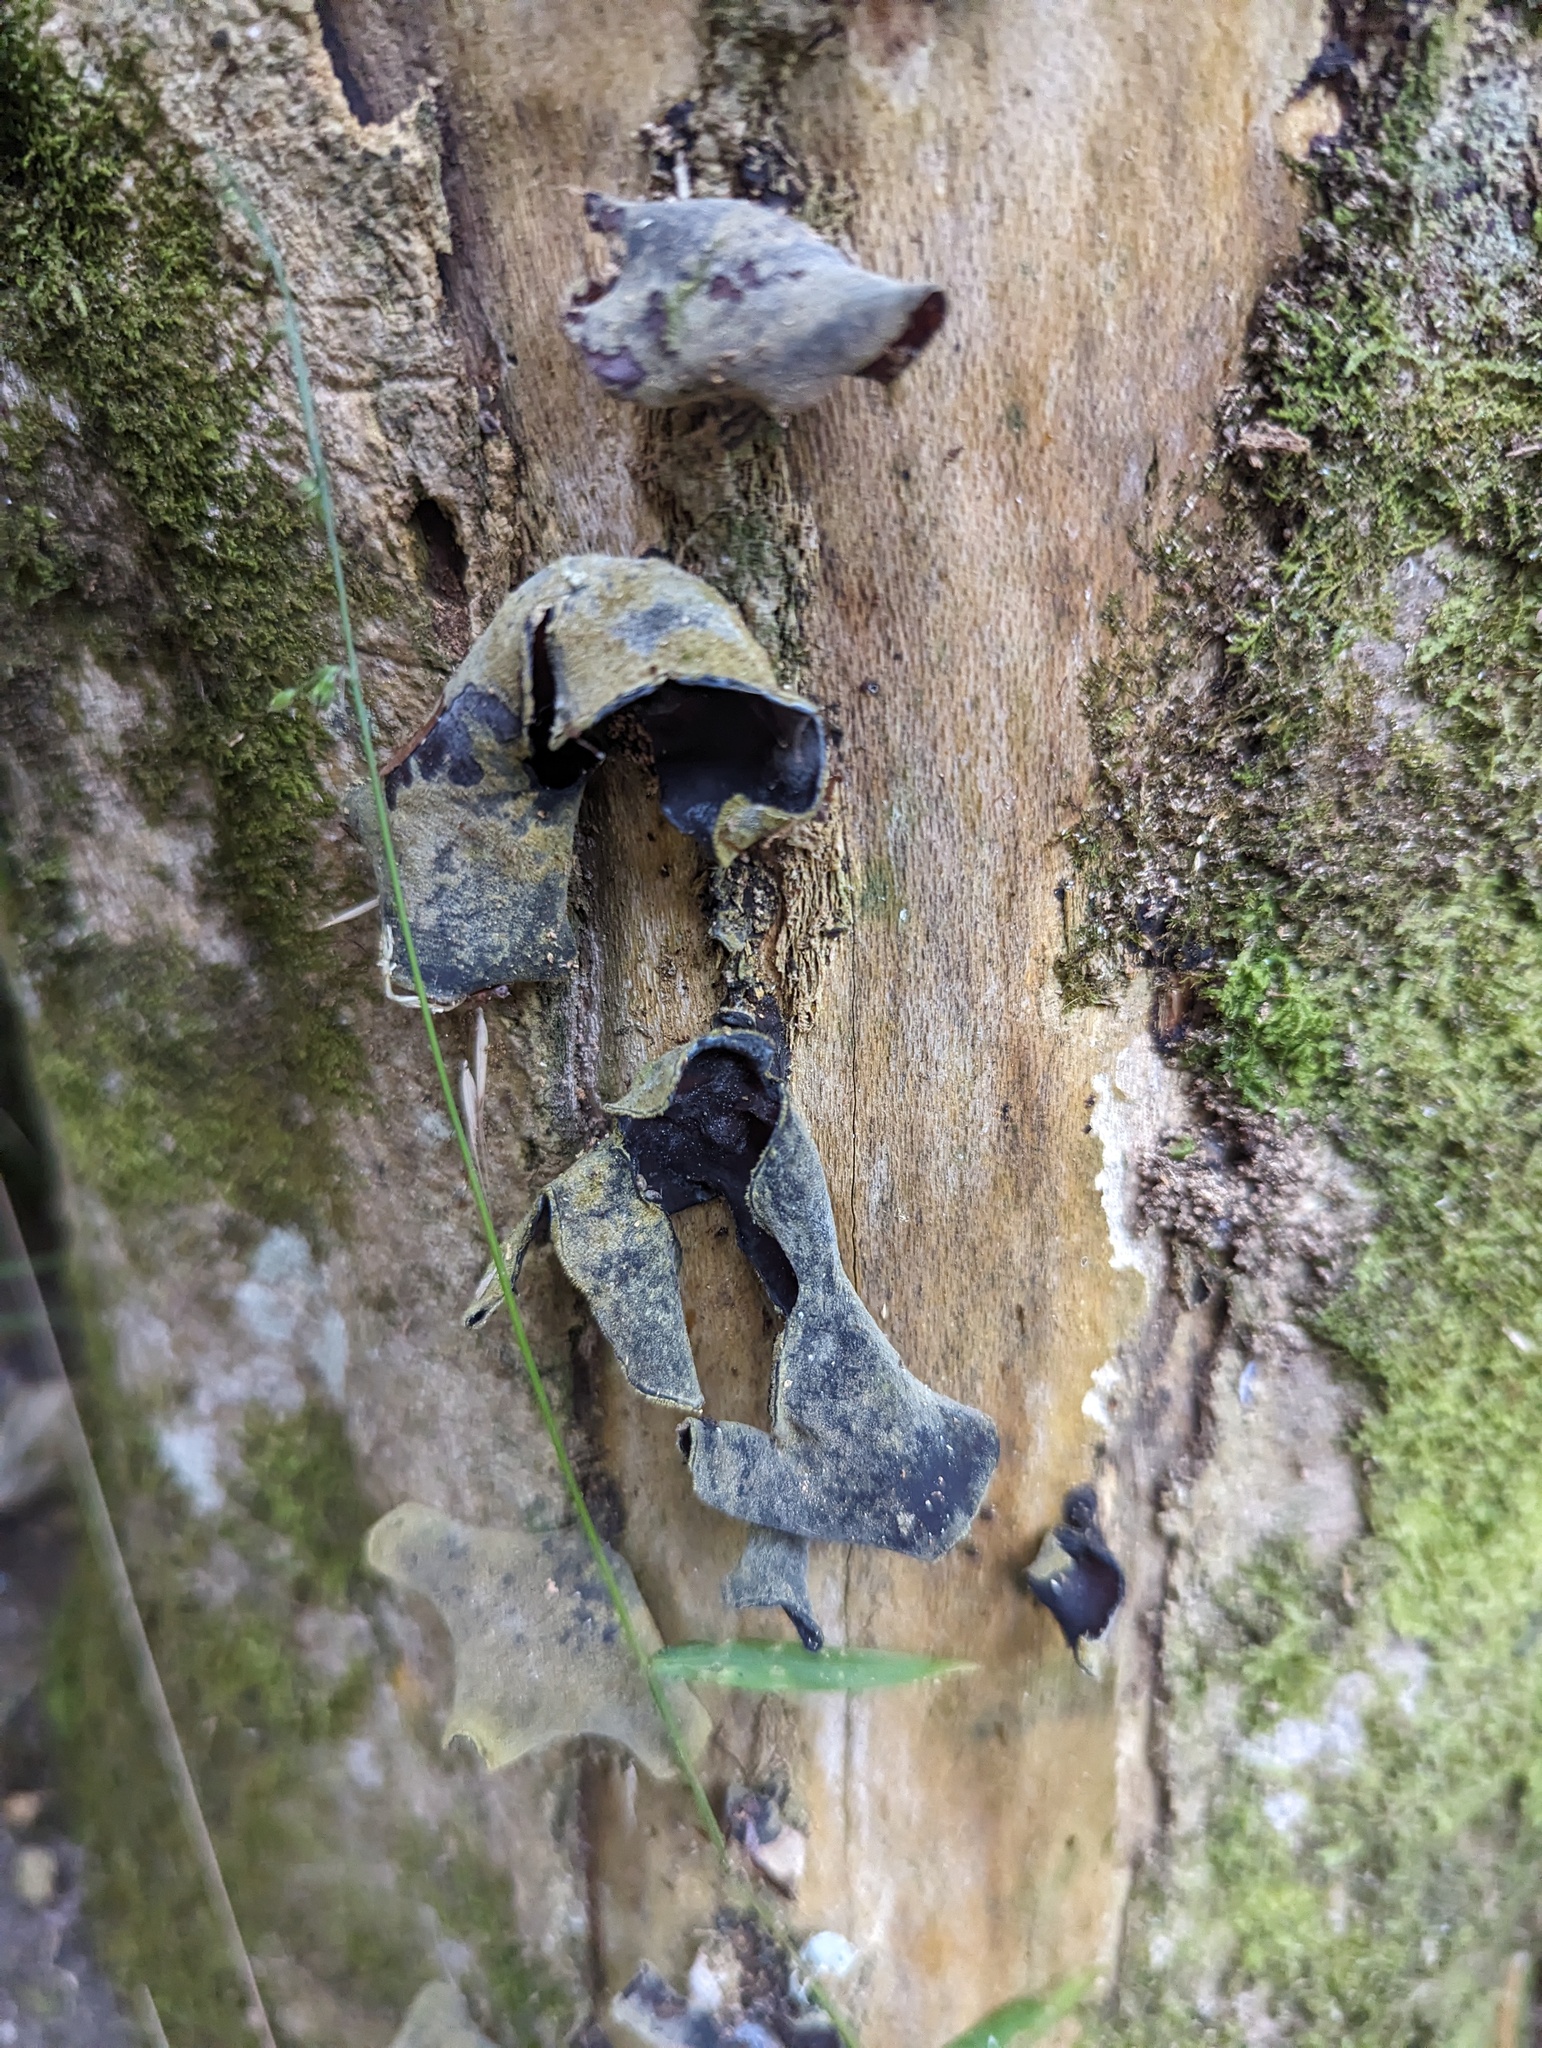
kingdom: Fungi
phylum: Basidiomycota
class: Agaricomycetes
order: Auriculariales
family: Auriculariaceae
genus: Auricularia
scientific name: Auricularia cornea
